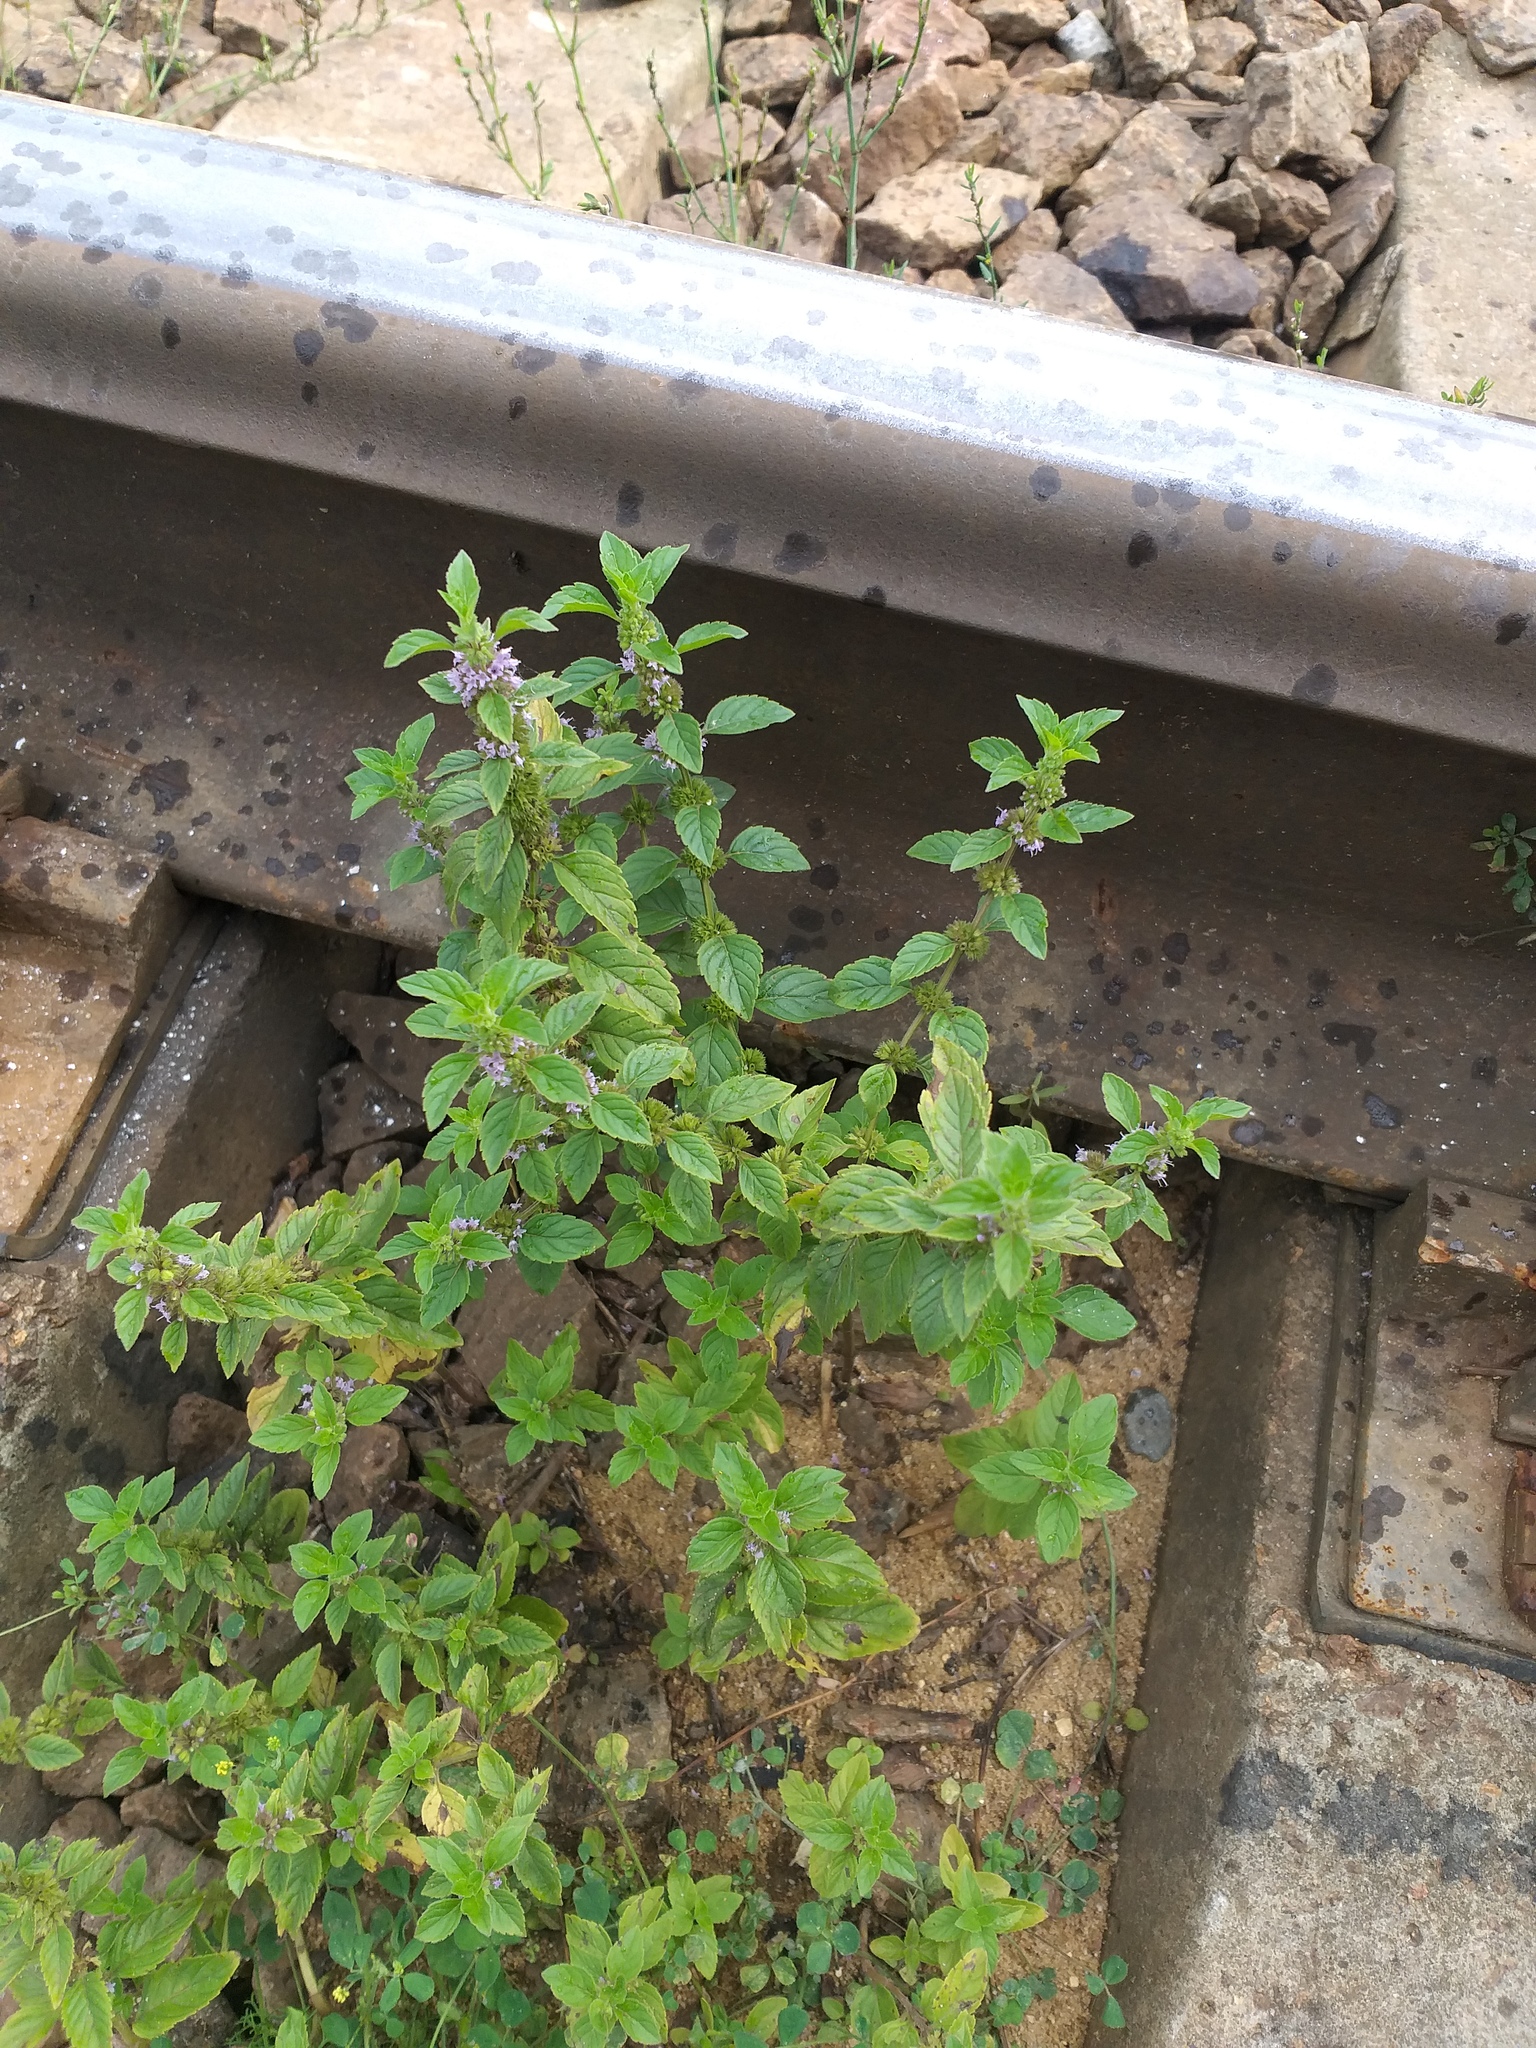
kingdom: Plantae
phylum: Tracheophyta
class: Magnoliopsida
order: Lamiales
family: Lamiaceae
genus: Mentha
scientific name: Mentha arvensis
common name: Corn mint
